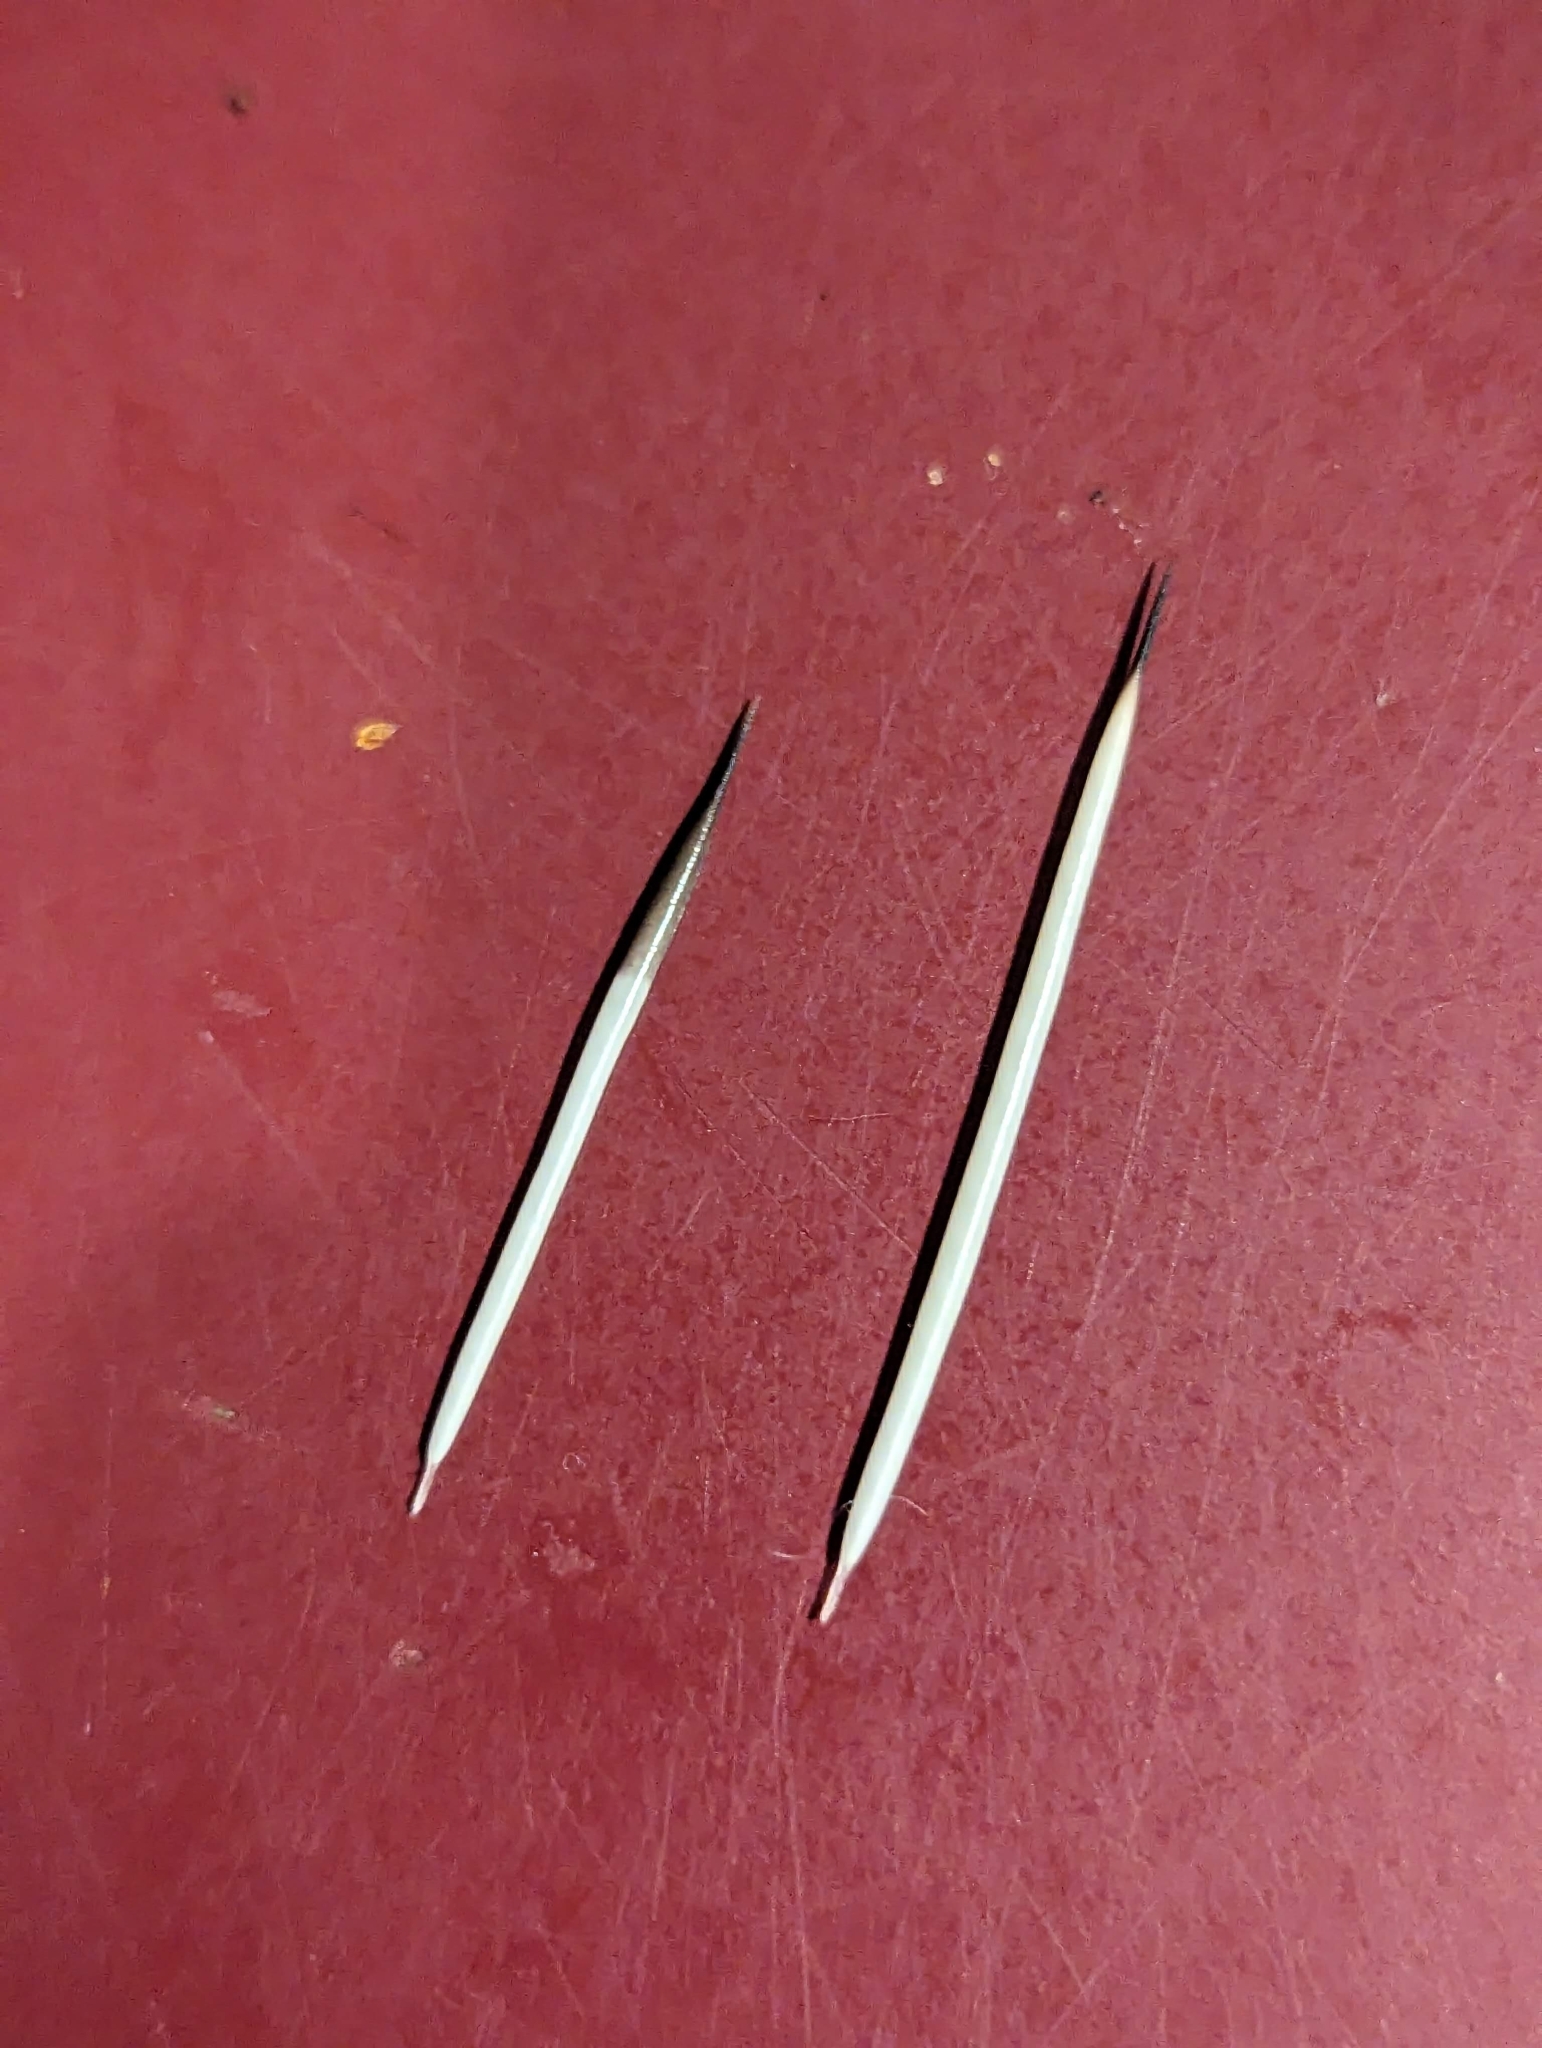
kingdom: Animalia
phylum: Chordata
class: Mammalia
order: Rodentia
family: Erethizontidae
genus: Erethizon
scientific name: Erethizon dorsatus
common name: North american porcupine
